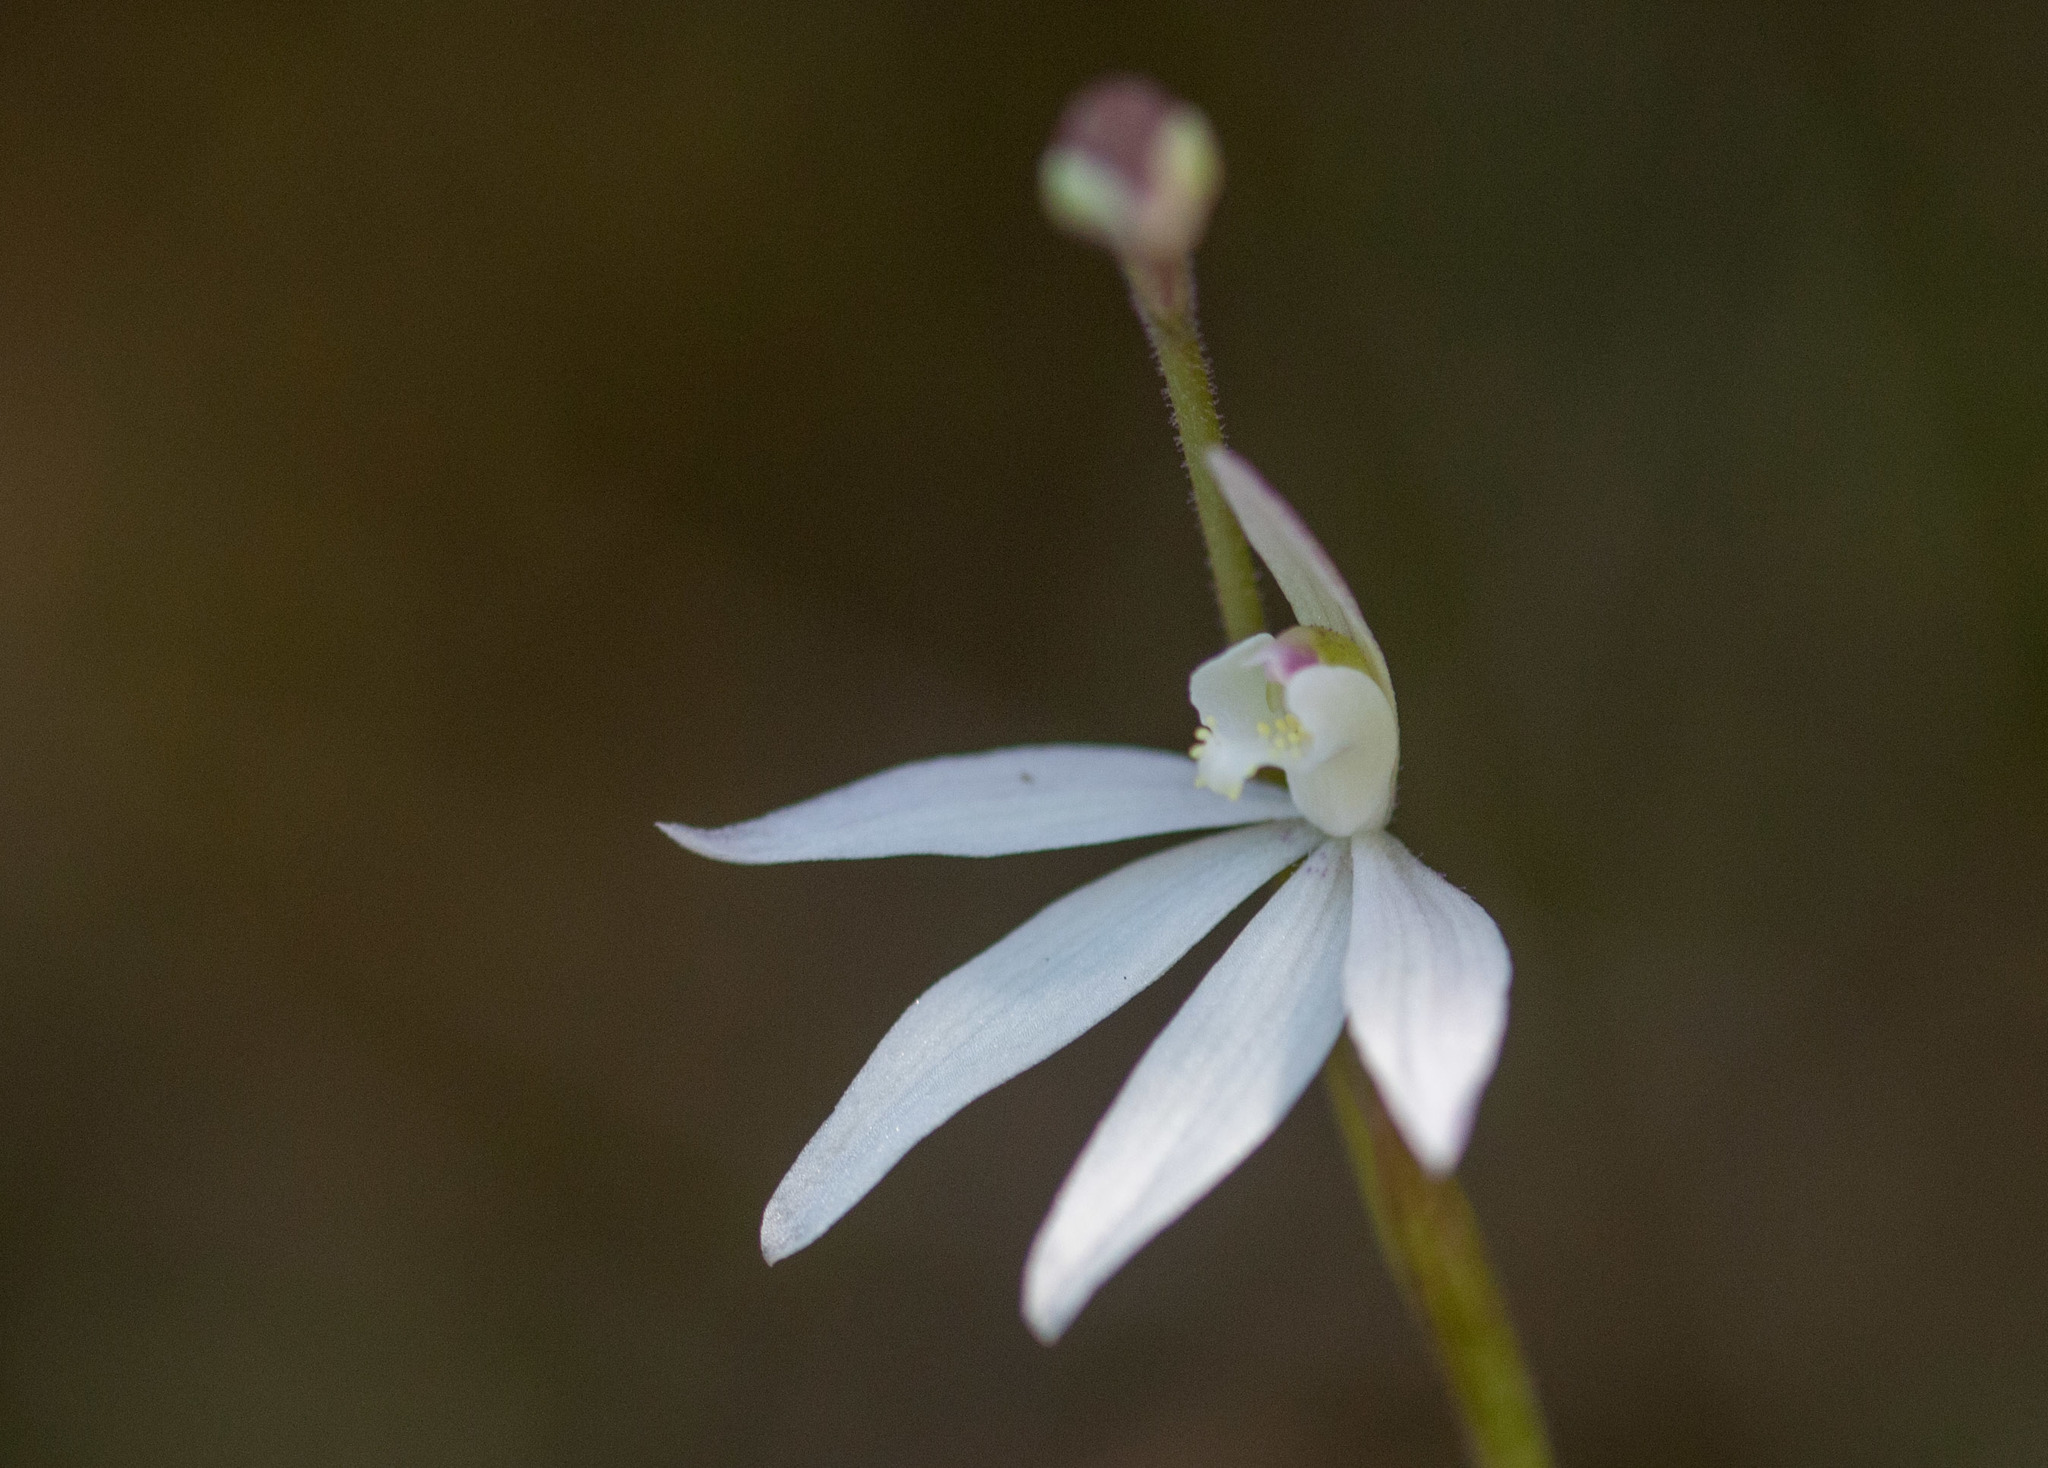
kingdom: Plantae
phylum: Tracheophyta
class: Liliopsida
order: Asparagales
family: Orchidaceae
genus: Caladenia
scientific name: Caladenia carnea
